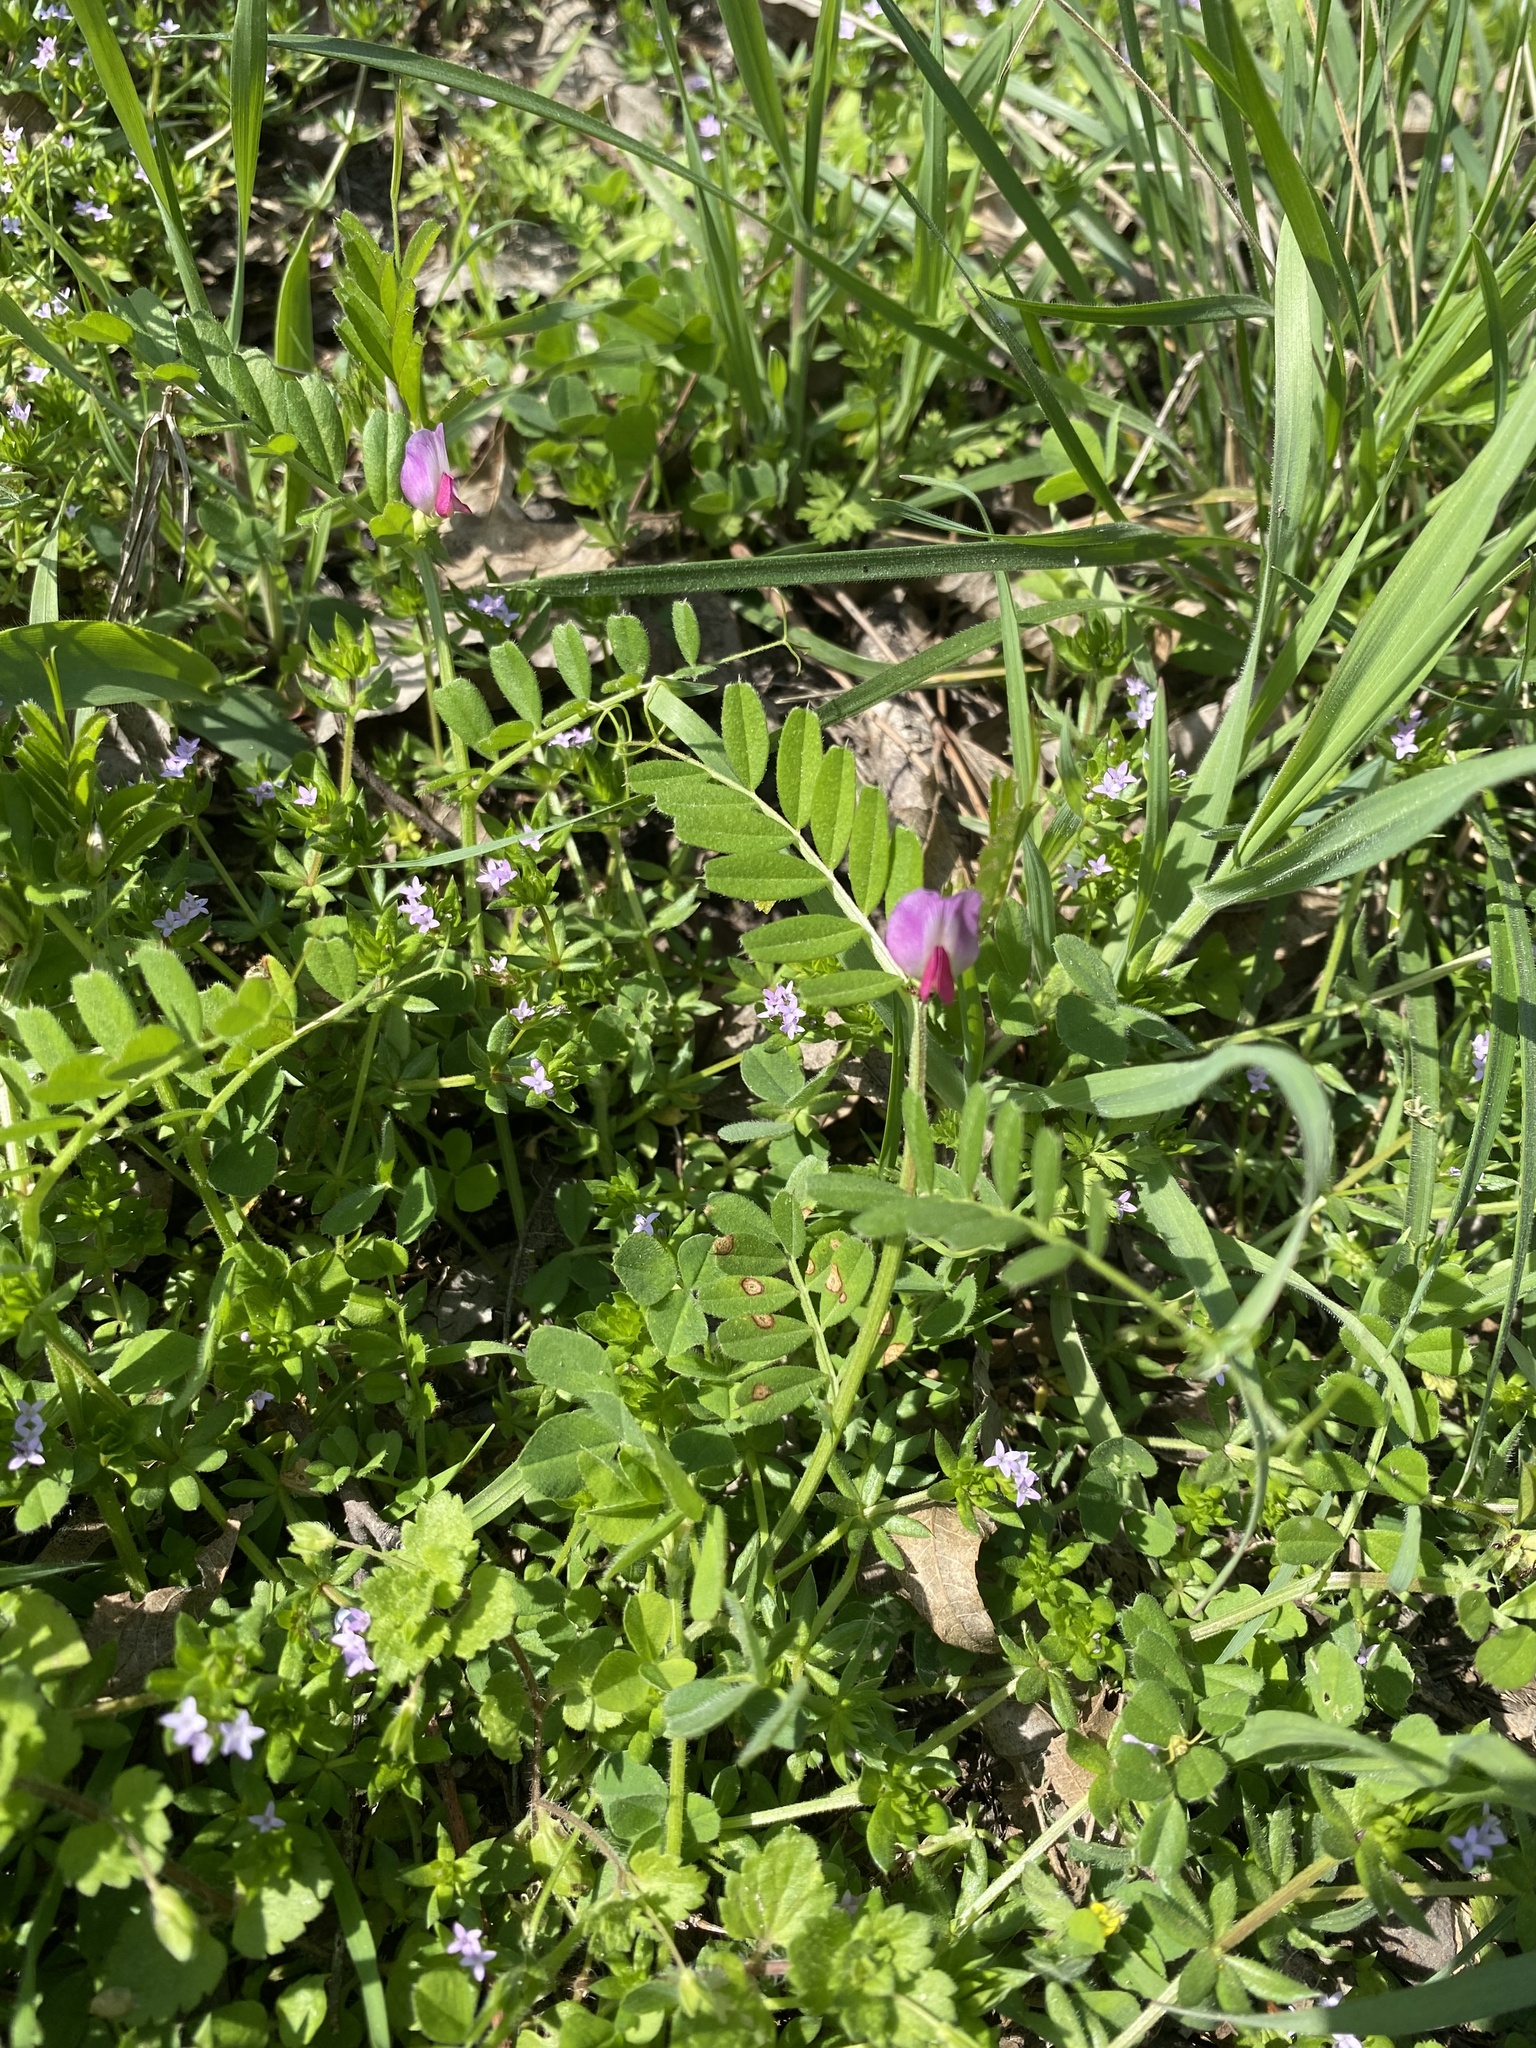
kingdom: Plantae
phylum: Tracheophyta
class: Magnoliopsida
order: Fabales
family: Fabaceae
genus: Vicia
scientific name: Vicia sativa
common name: Garden vetch
